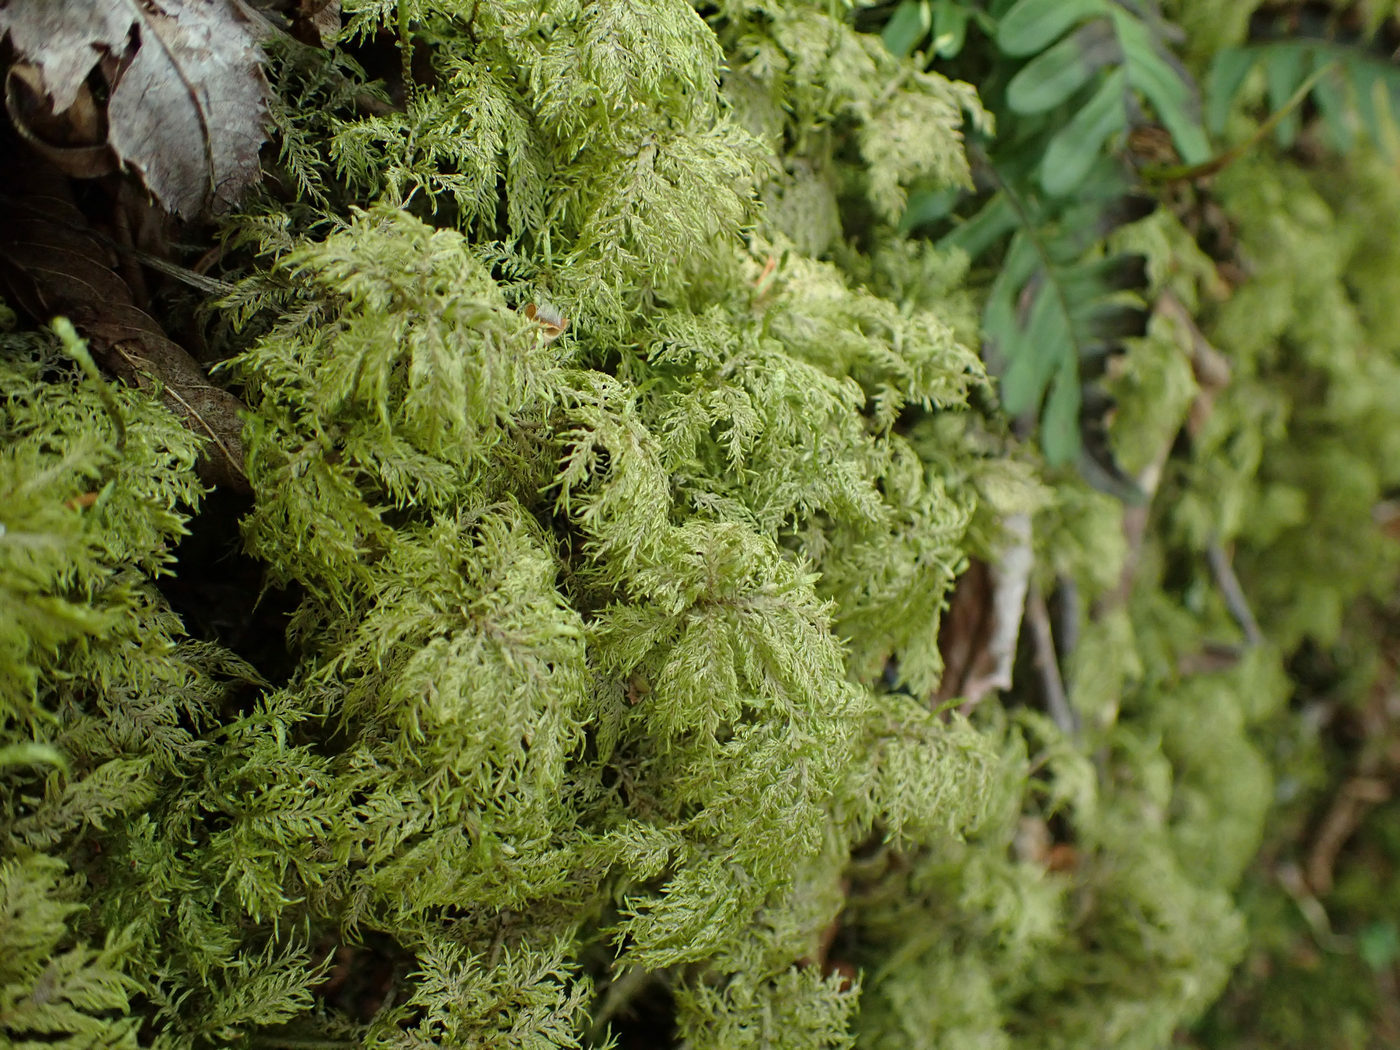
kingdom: Plantae
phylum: Bryophyta
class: Bryopsida
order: Hypnales
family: Hylocomiaceae
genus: Hylocomium
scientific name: Hylocomium splendens
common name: Stairstep moss
